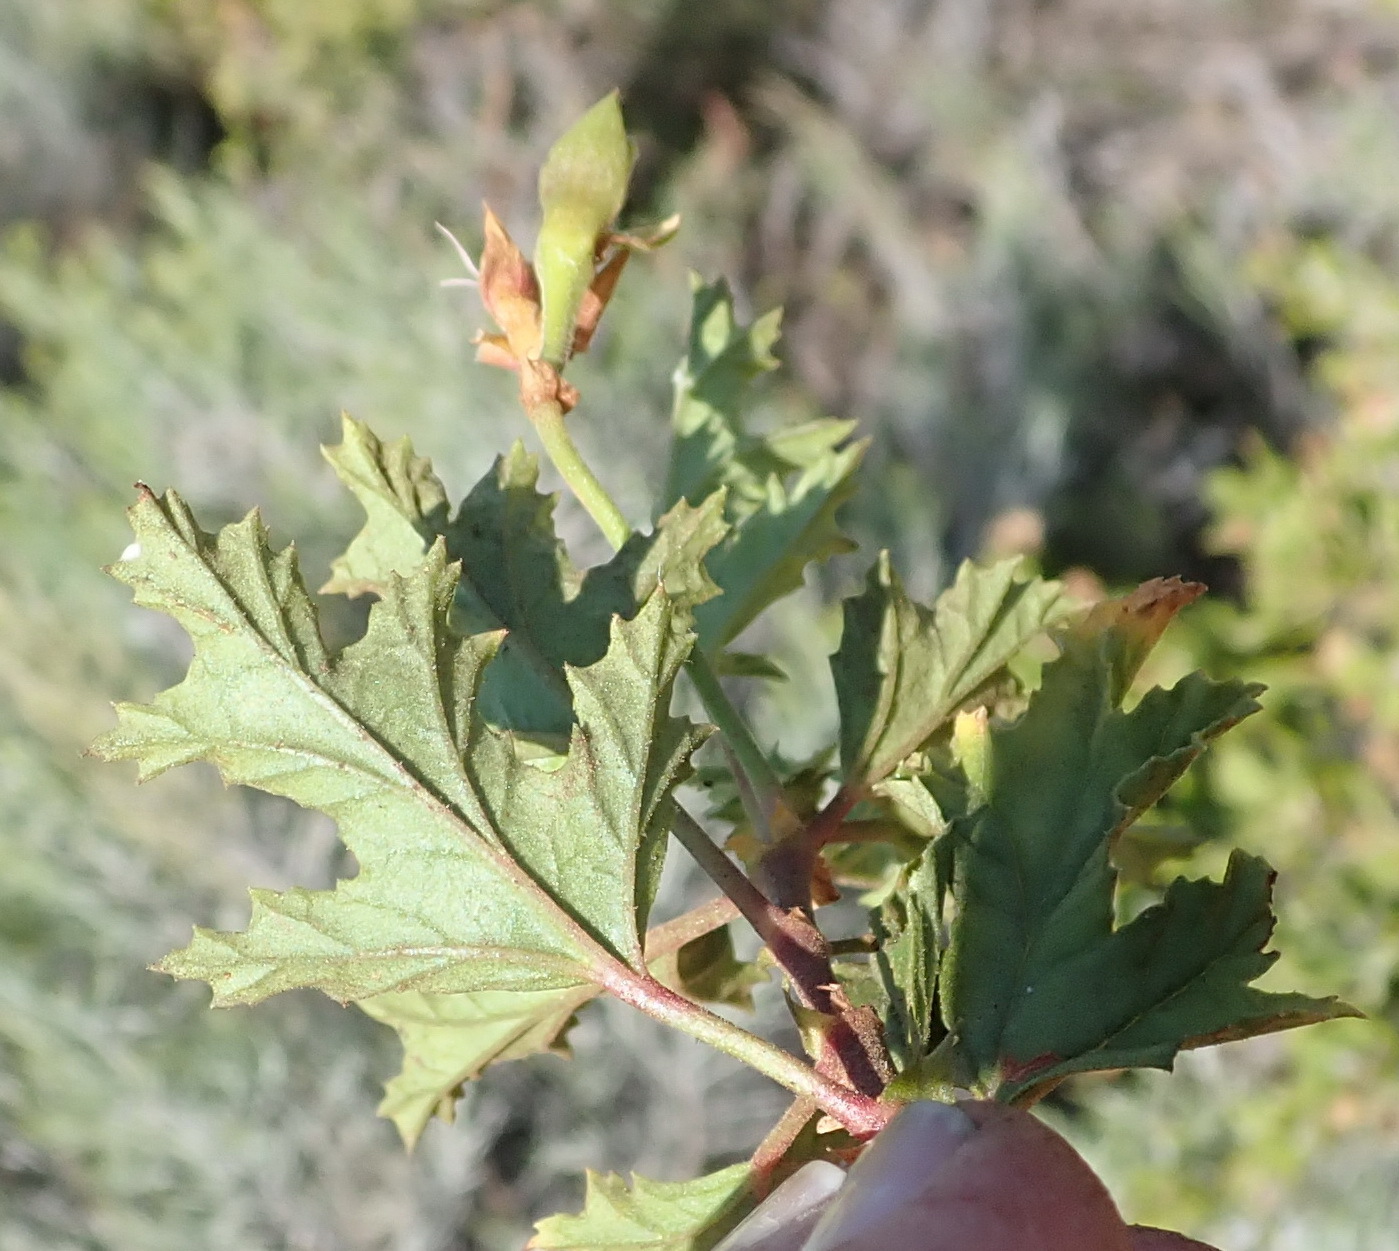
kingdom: Plantae
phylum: Tracheophyta
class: Magnoliopsida
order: Geraniales
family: Geraniaceae
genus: Pelargonium
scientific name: Pelargonium pseudoglutinosum
